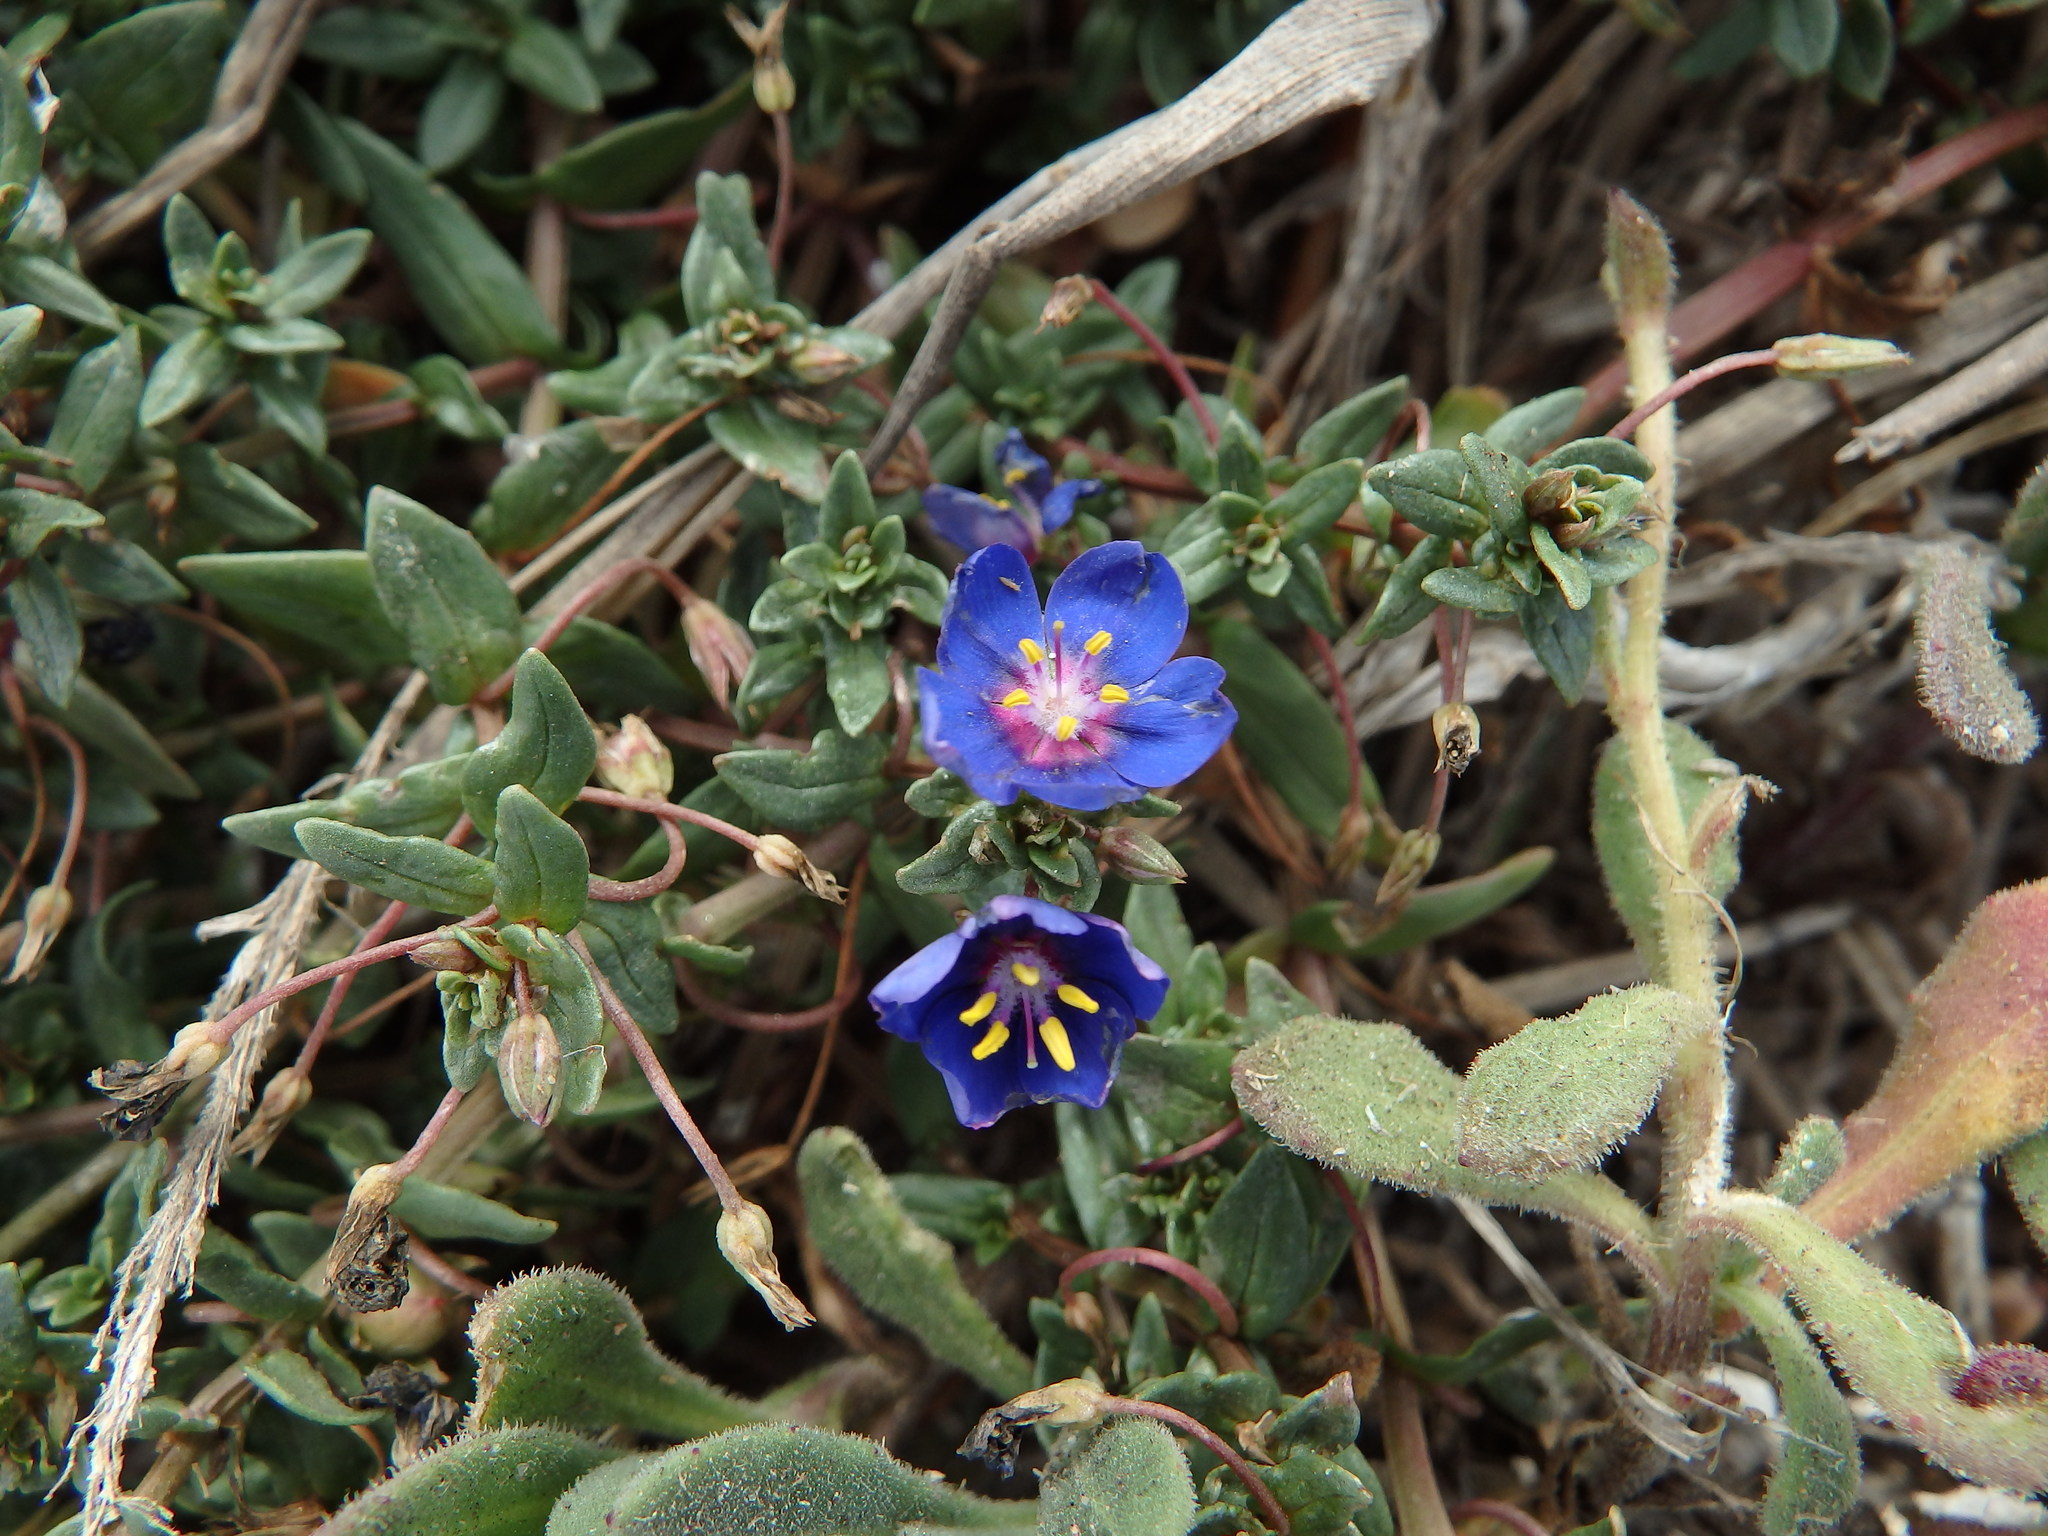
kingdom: Plantae
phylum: Tracheophyta
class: Magnoliopsida
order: Ericales
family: Primulaceae
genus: Lysimachia
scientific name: Lysimachia monelli
